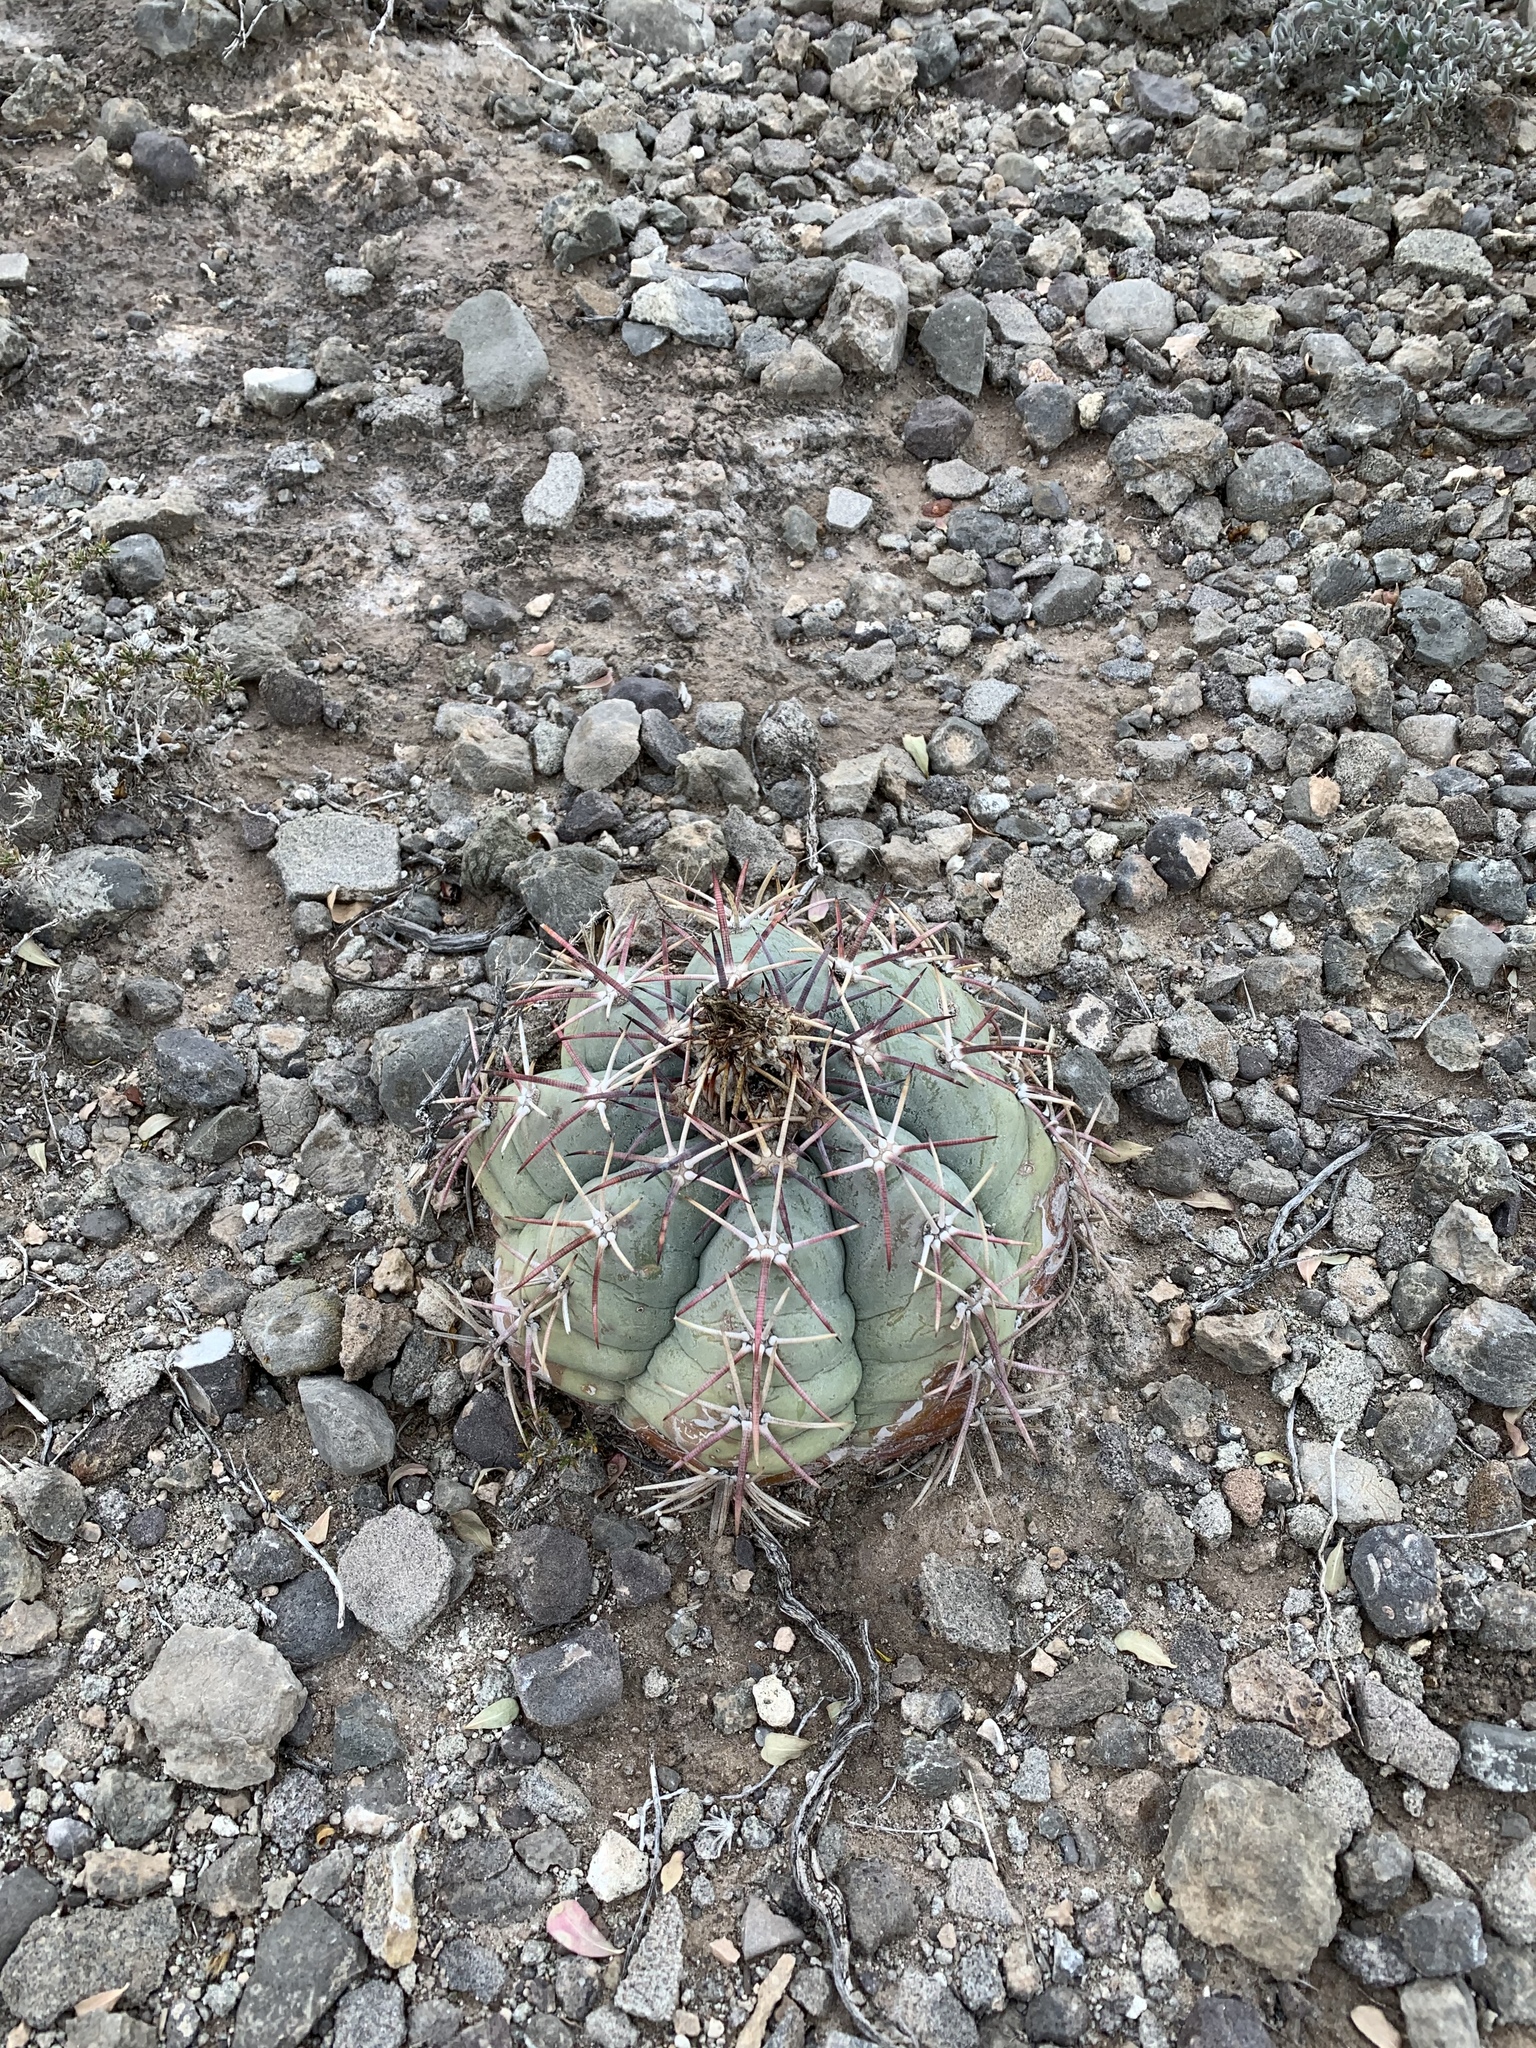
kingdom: Plantae
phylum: Tracheophyta
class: Magnoliopsida
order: Caryophyllales
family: Cactaceae
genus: Echinocactus
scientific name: Echinocactus horizonthalonius
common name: Devilshead
